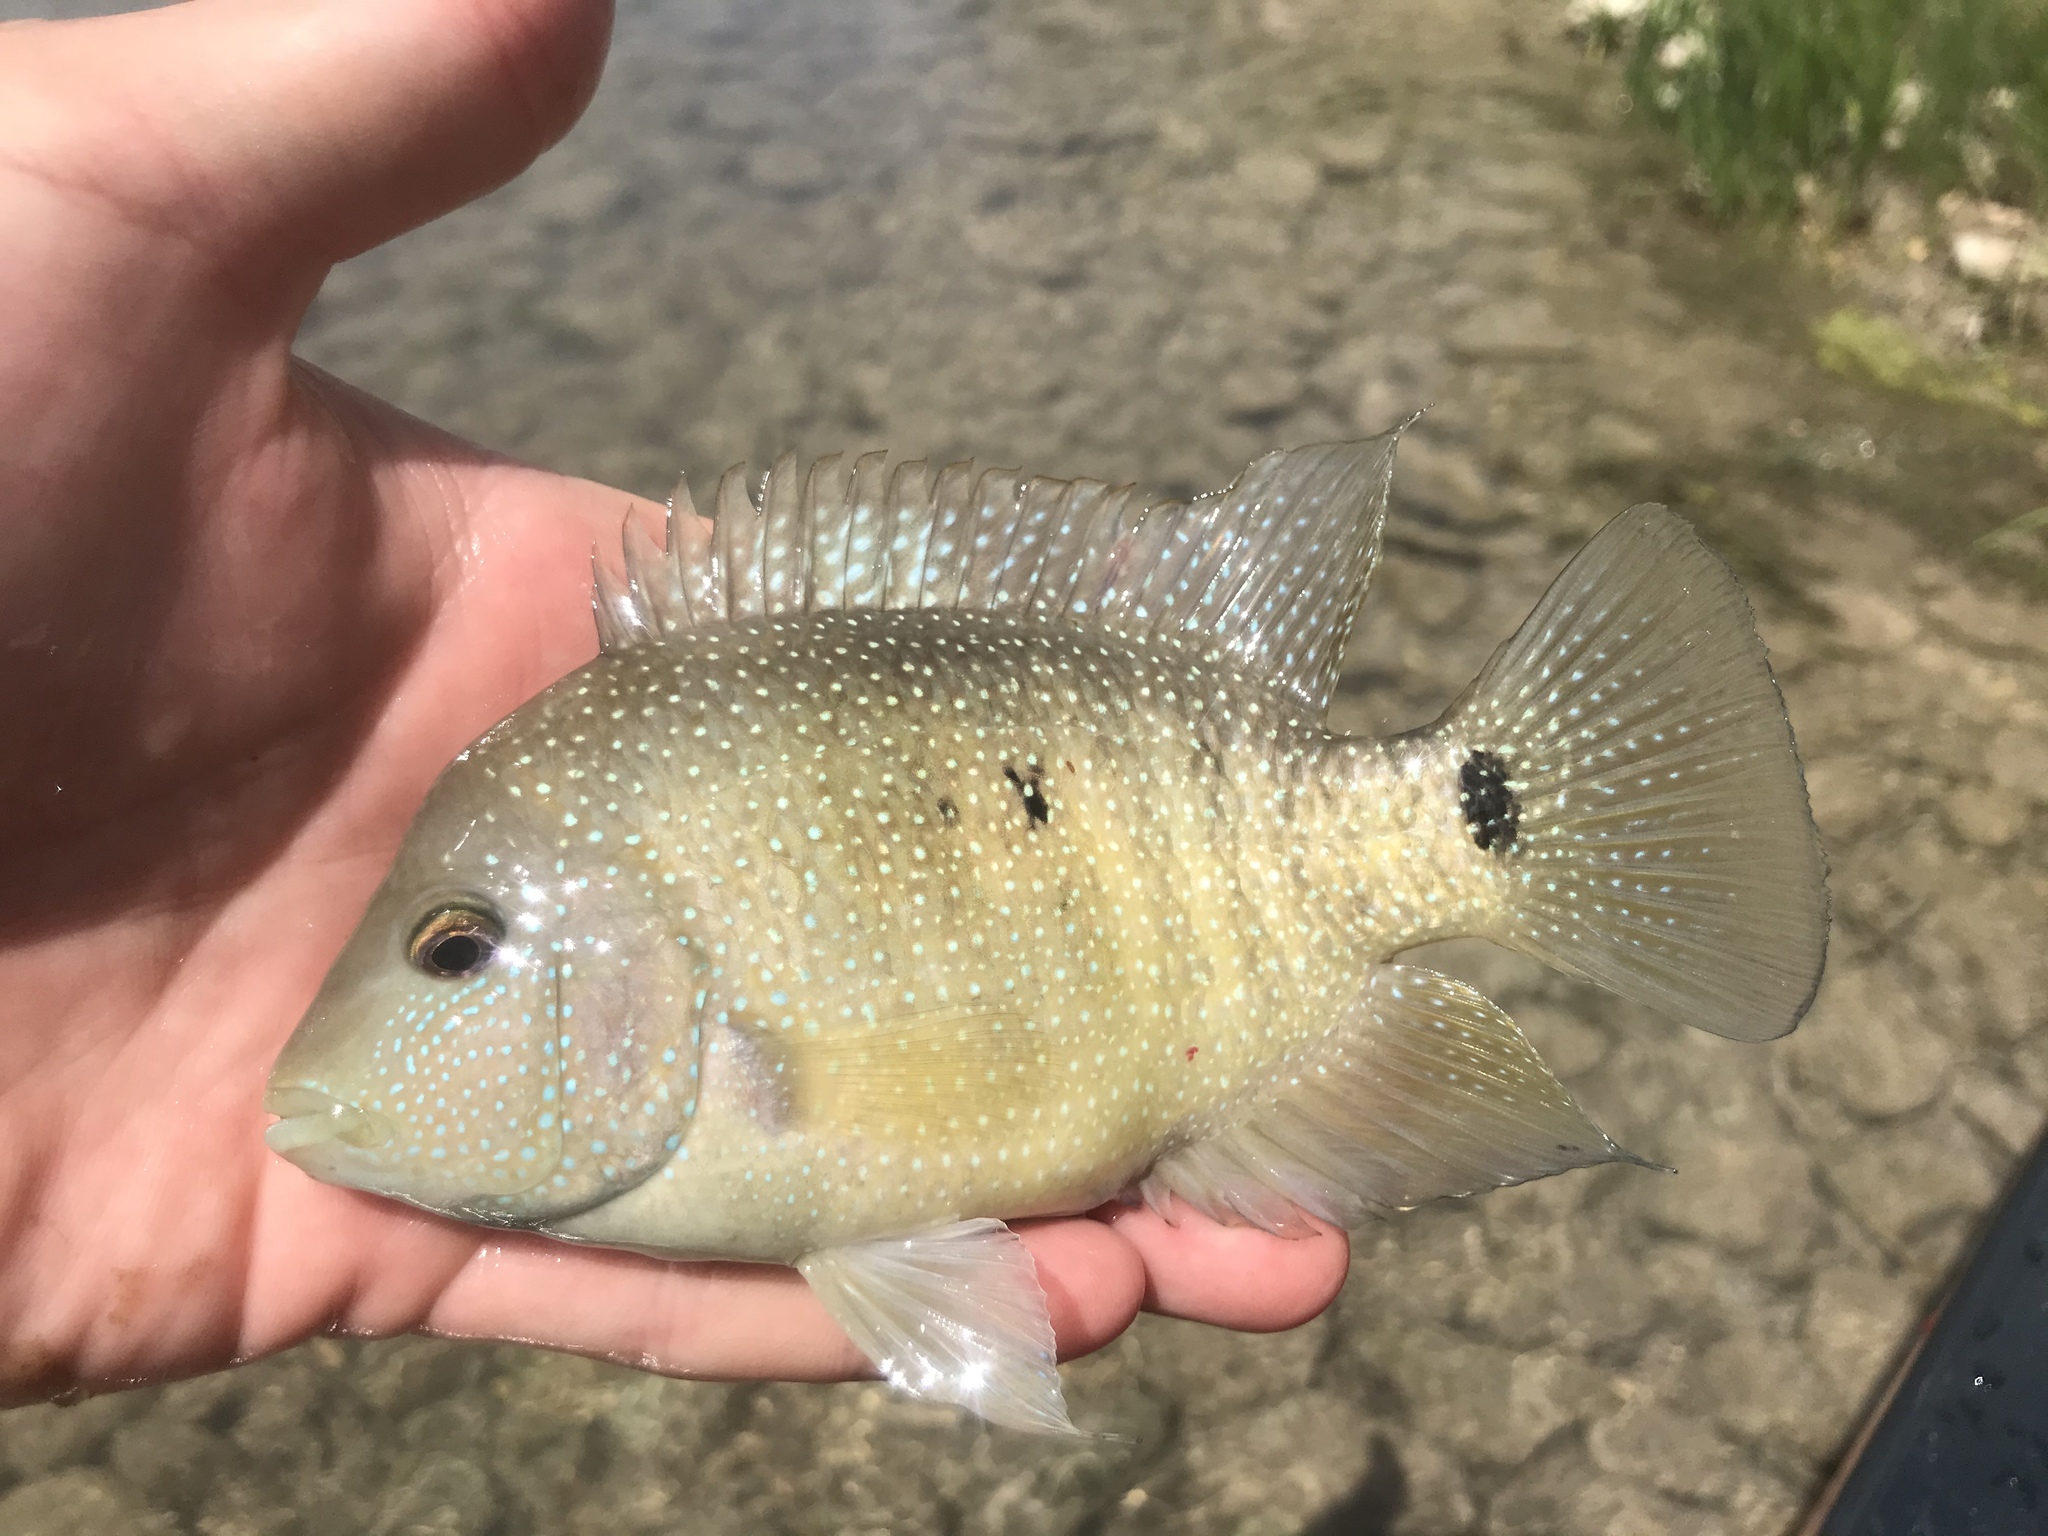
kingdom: Animalia
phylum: Chordata
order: Perciformes
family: Cichlidae
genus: Herichthys
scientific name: Herichthys cyanoguttatus
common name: Rio grande cichlid
